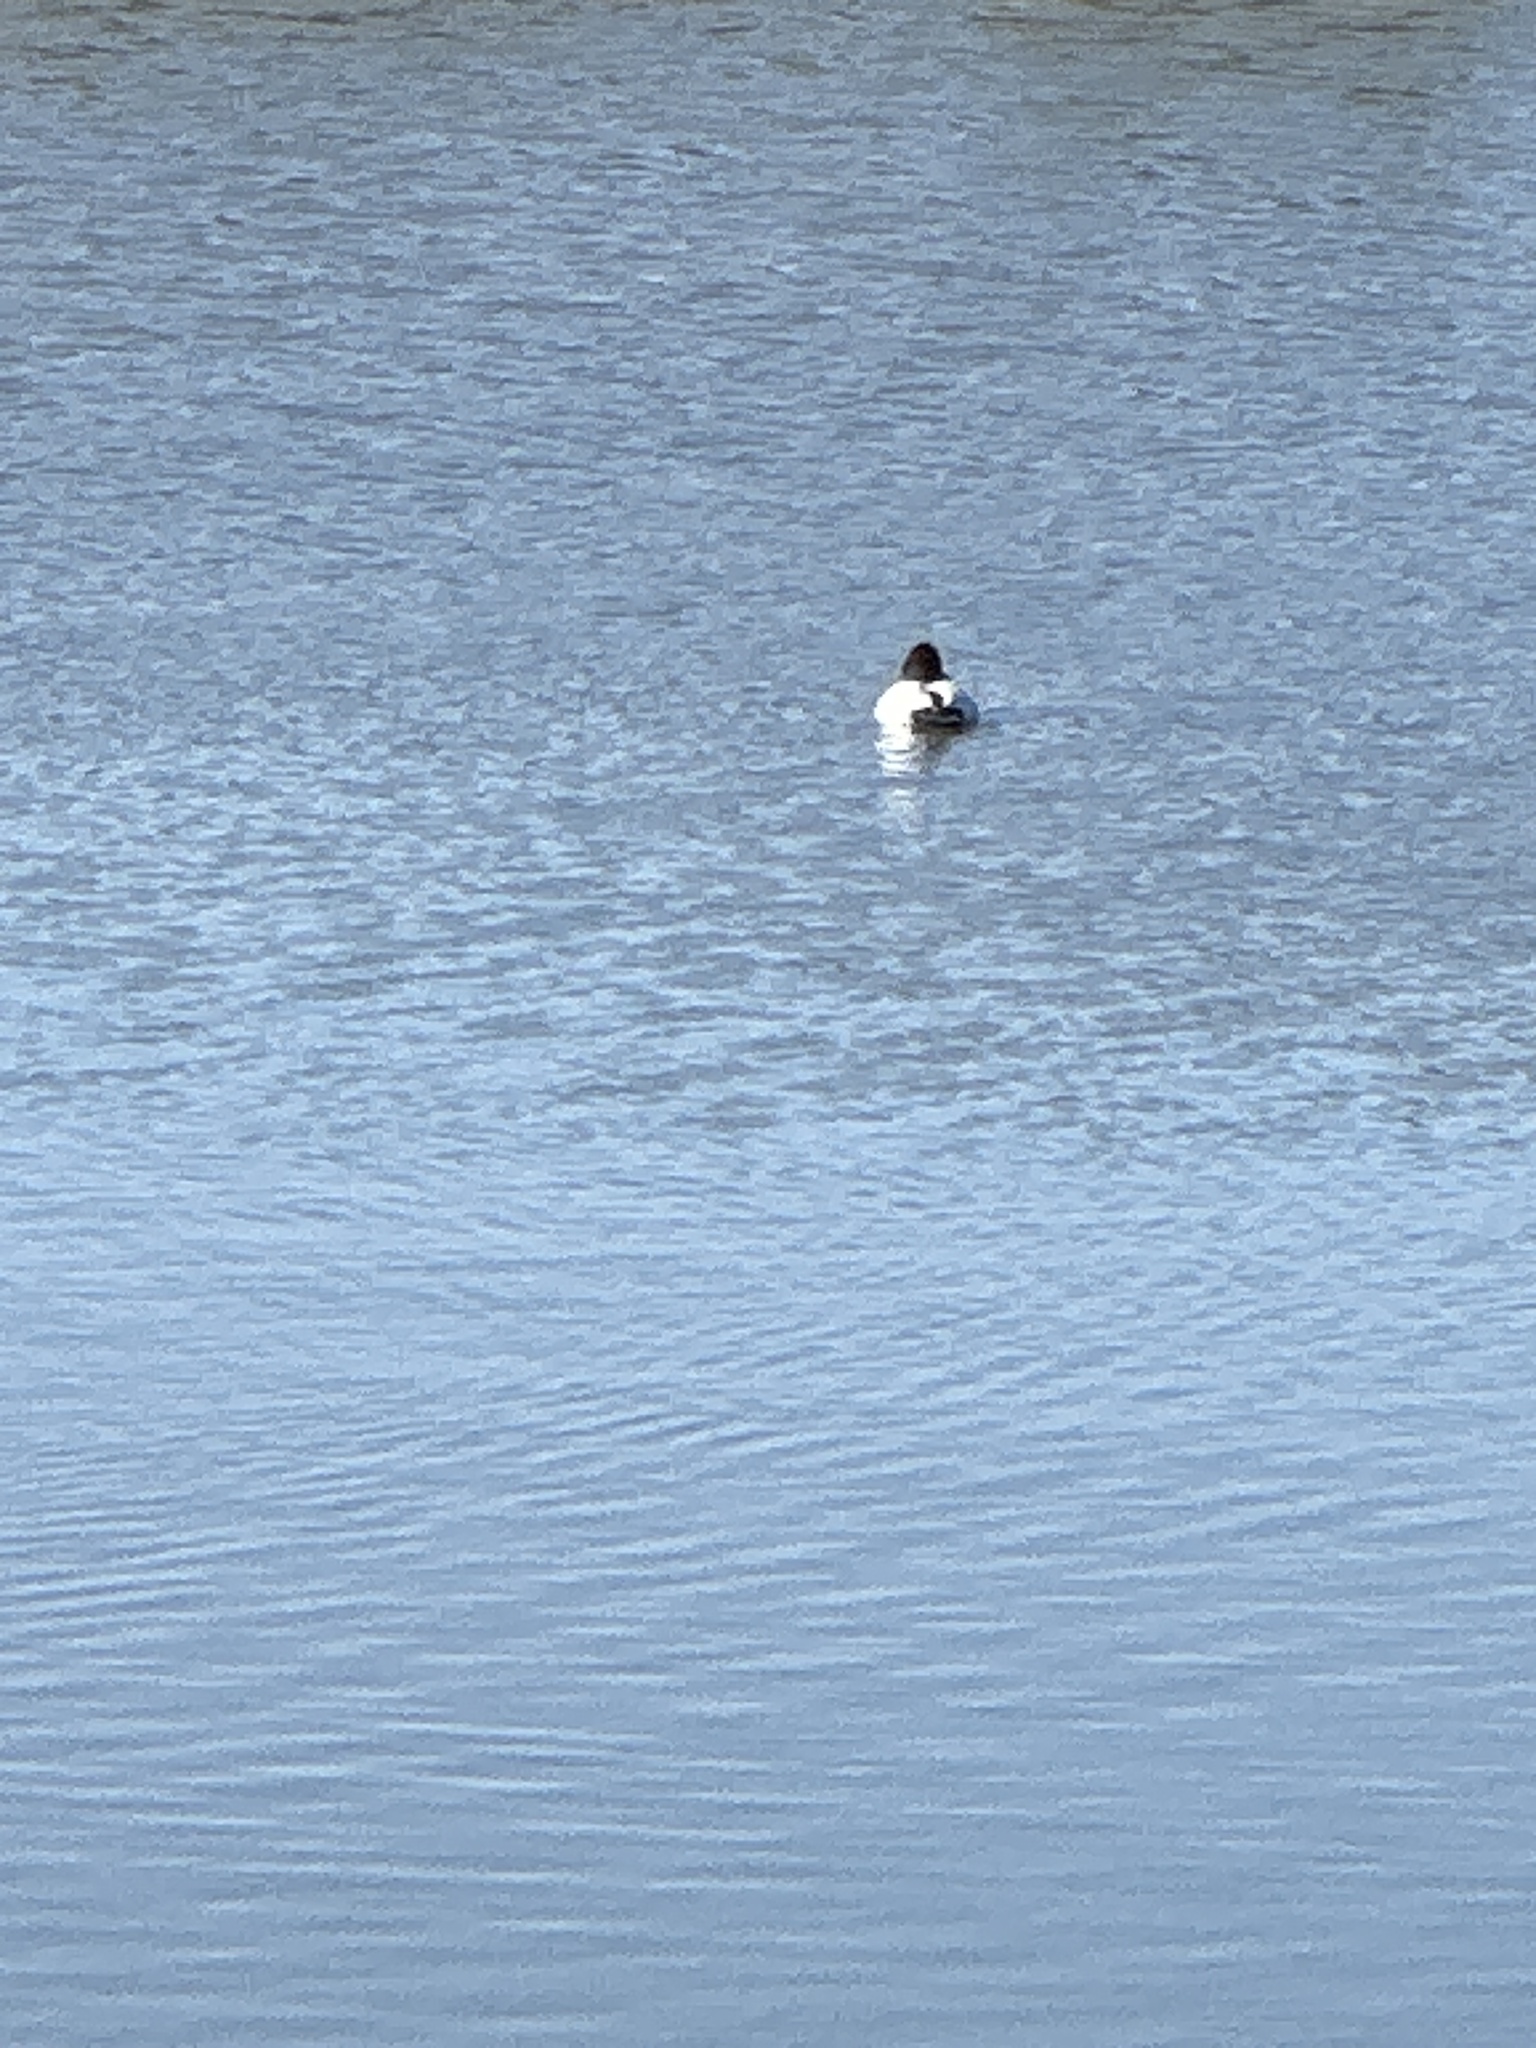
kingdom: Animalia
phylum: Chordata
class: Aves
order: Anseriformes
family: Anatidae
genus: Aythya
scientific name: Aythya valisineria
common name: Canvasback
